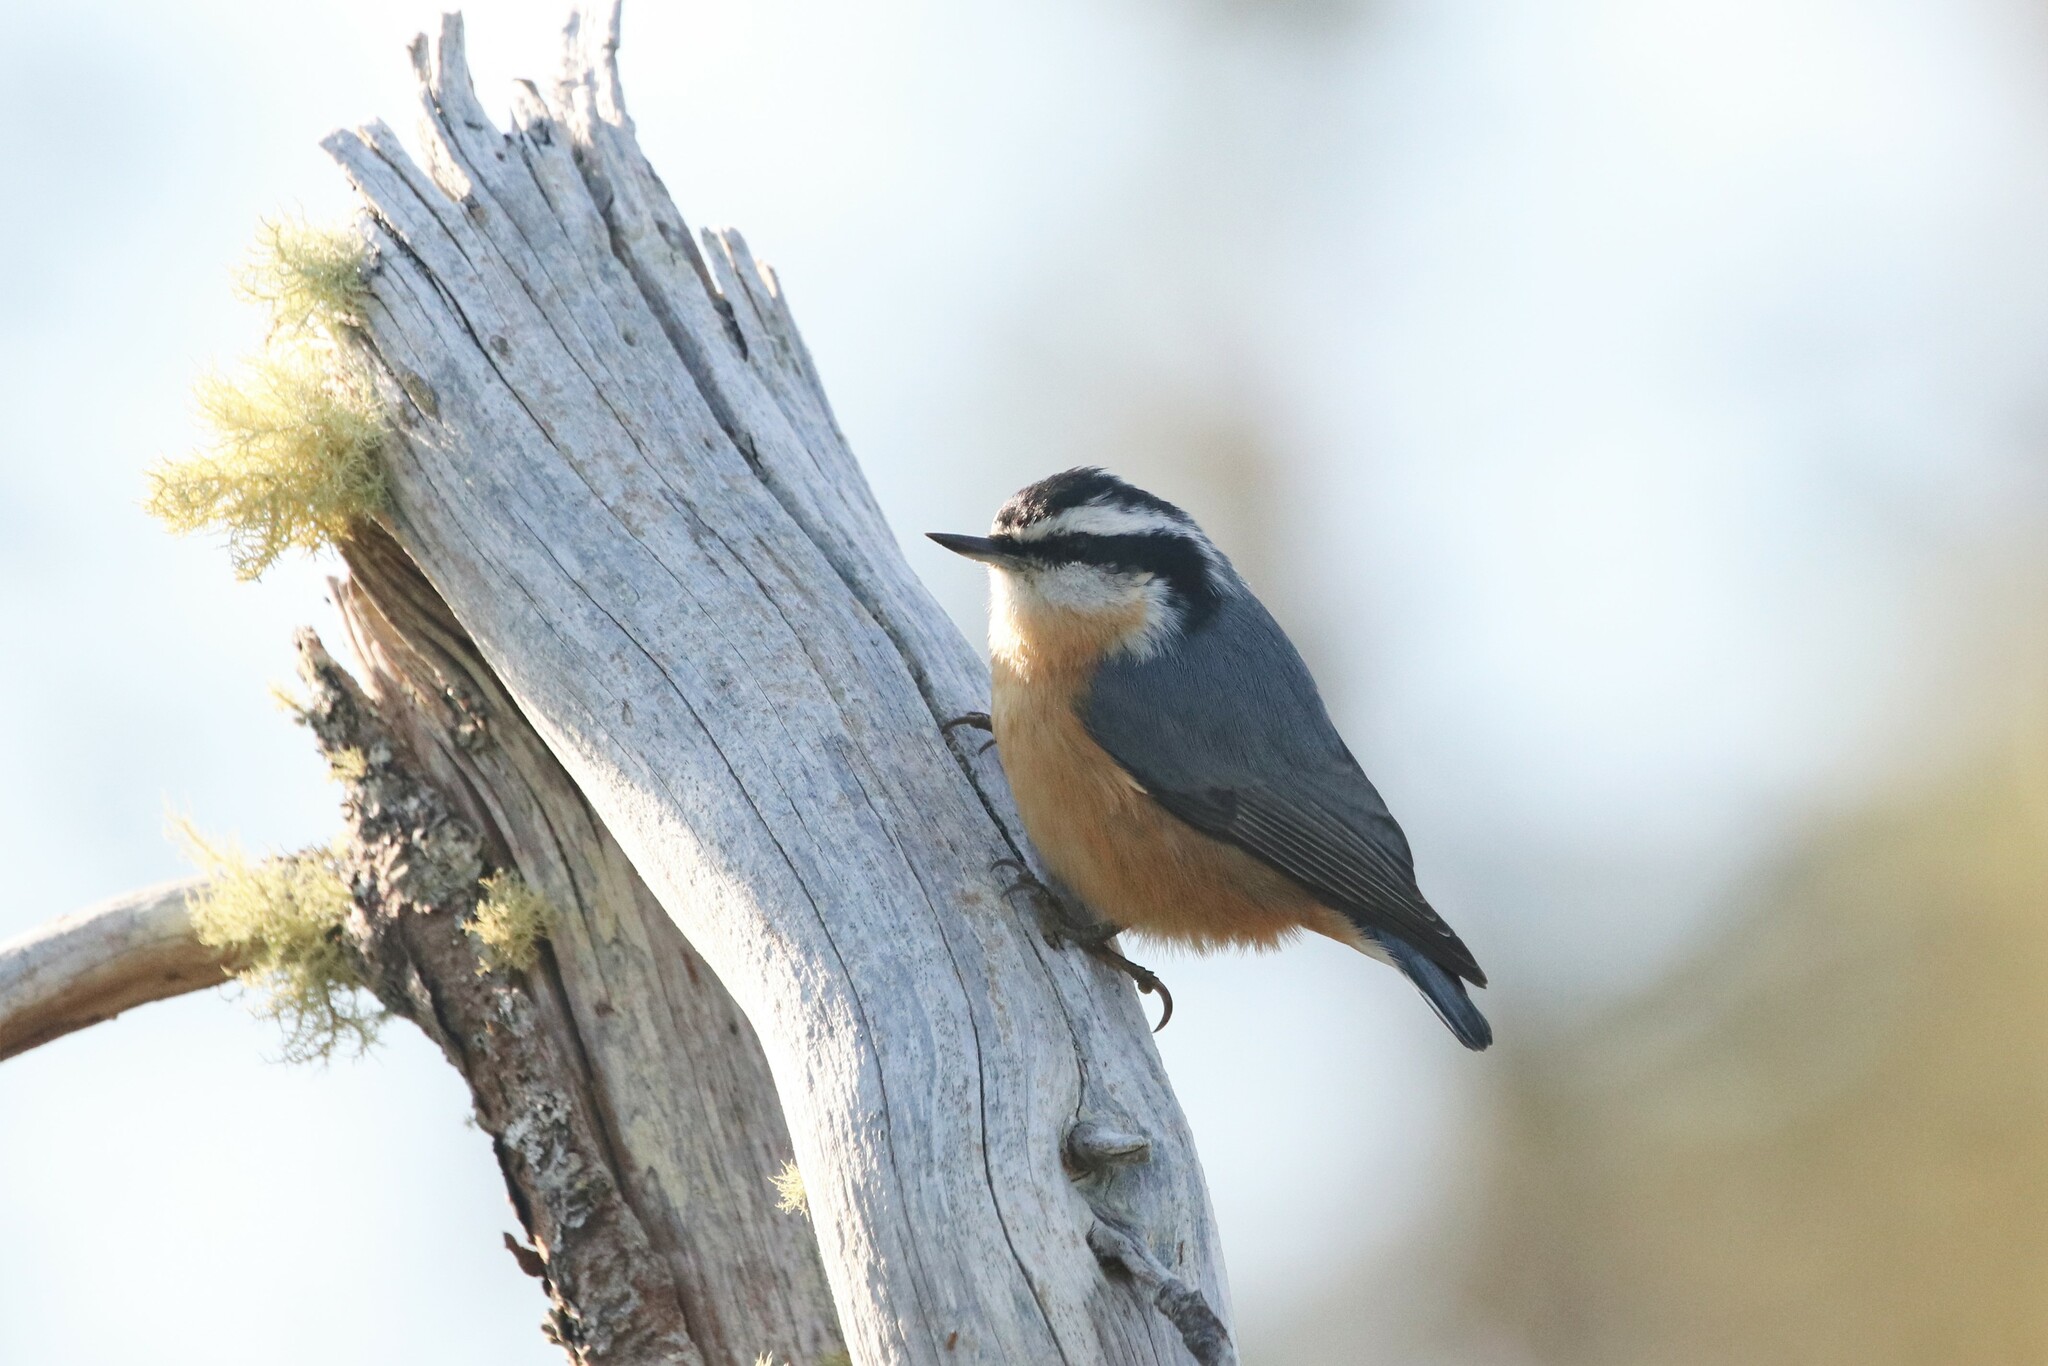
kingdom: Animalia
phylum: Chordata
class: Aves
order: Passeriformes
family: Sittidae
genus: Sitta
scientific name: Sitta canadensis
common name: Red-breasted nuthatch
